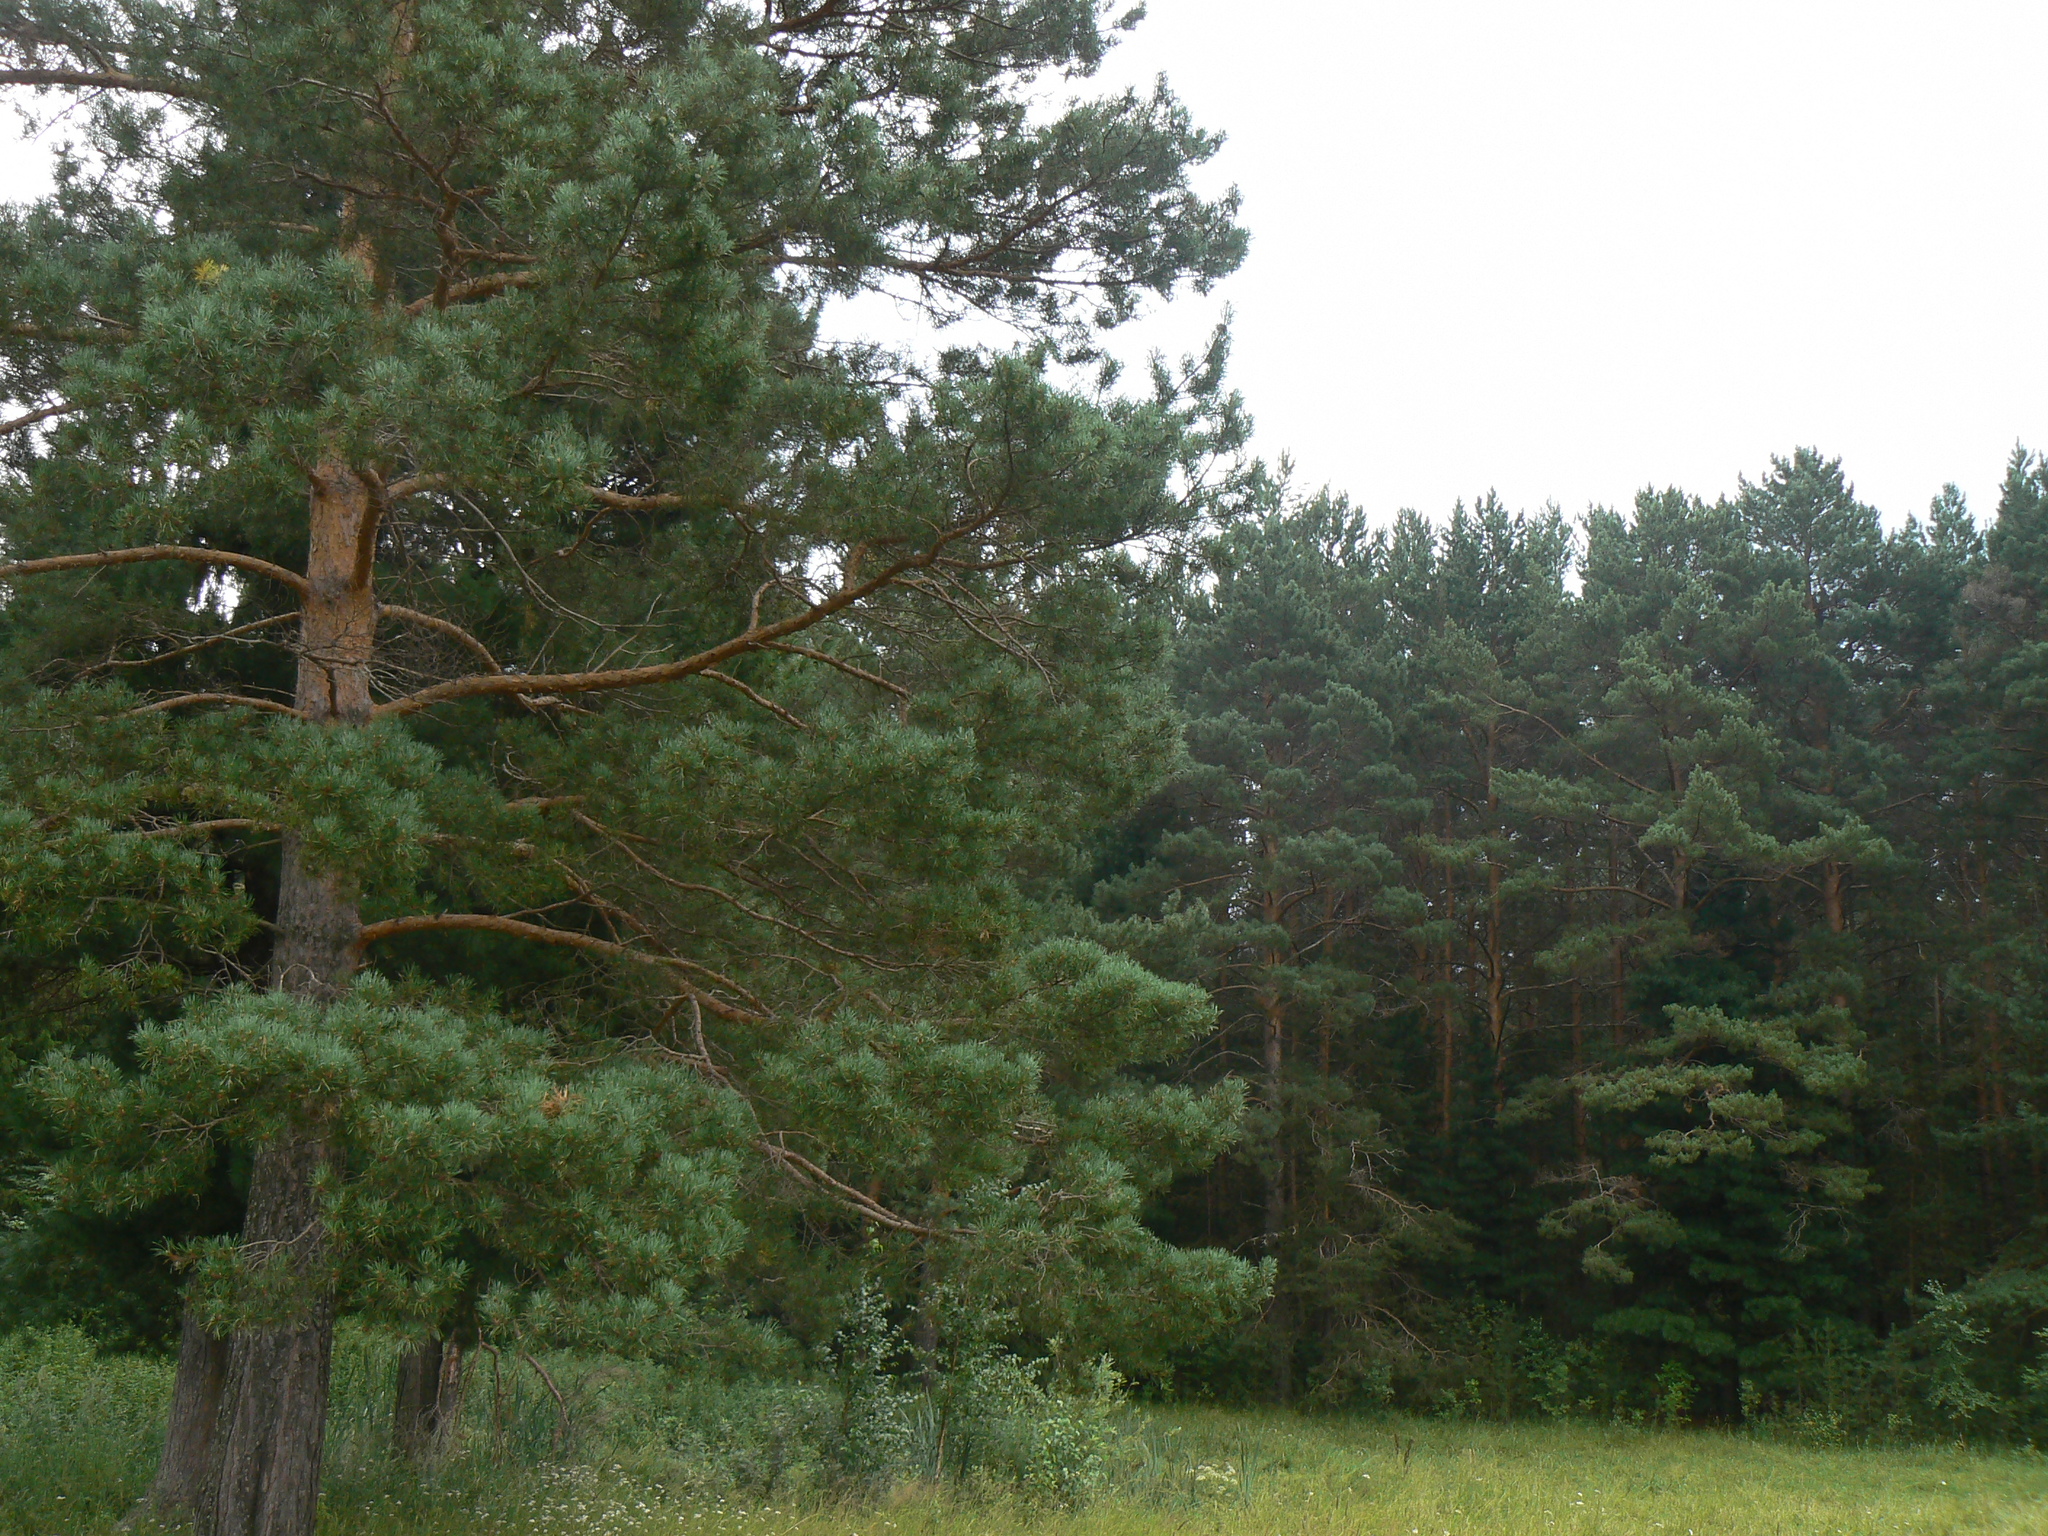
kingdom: Plantae
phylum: Tracheophyta
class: Pinopsida
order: Pinales
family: Pinaceae
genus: Pinus
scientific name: Pinus sylvestris
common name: Scots pine
